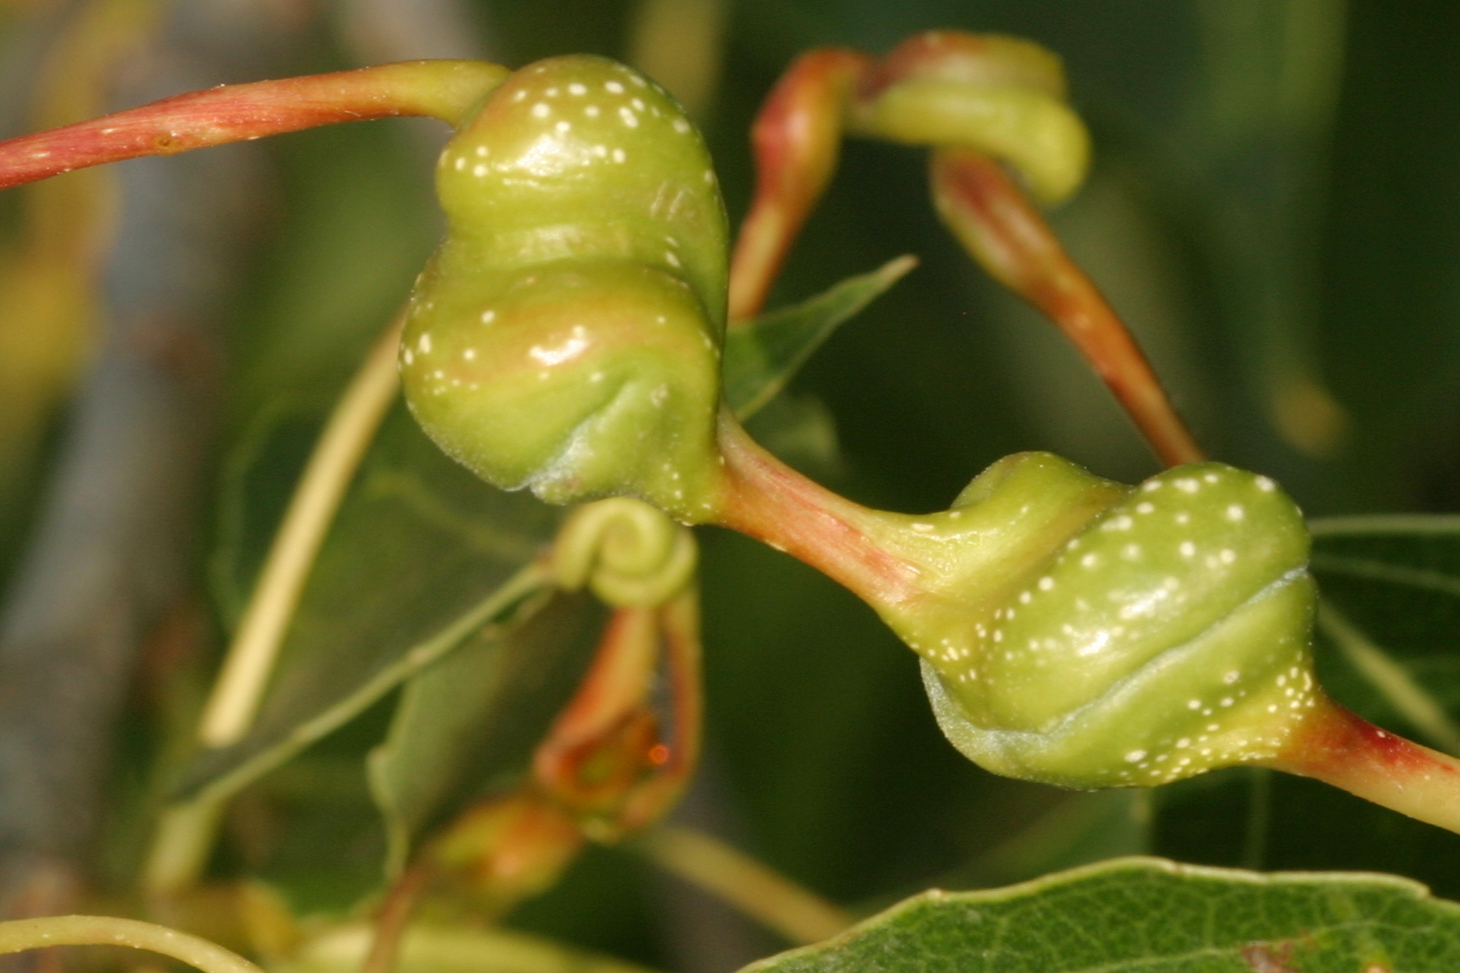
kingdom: Animalia
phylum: Arthropoda
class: Insecta
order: Hemiptera
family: Aphididae
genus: Pemphigus
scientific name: Pemphigus spyrothecae
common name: Aphid
